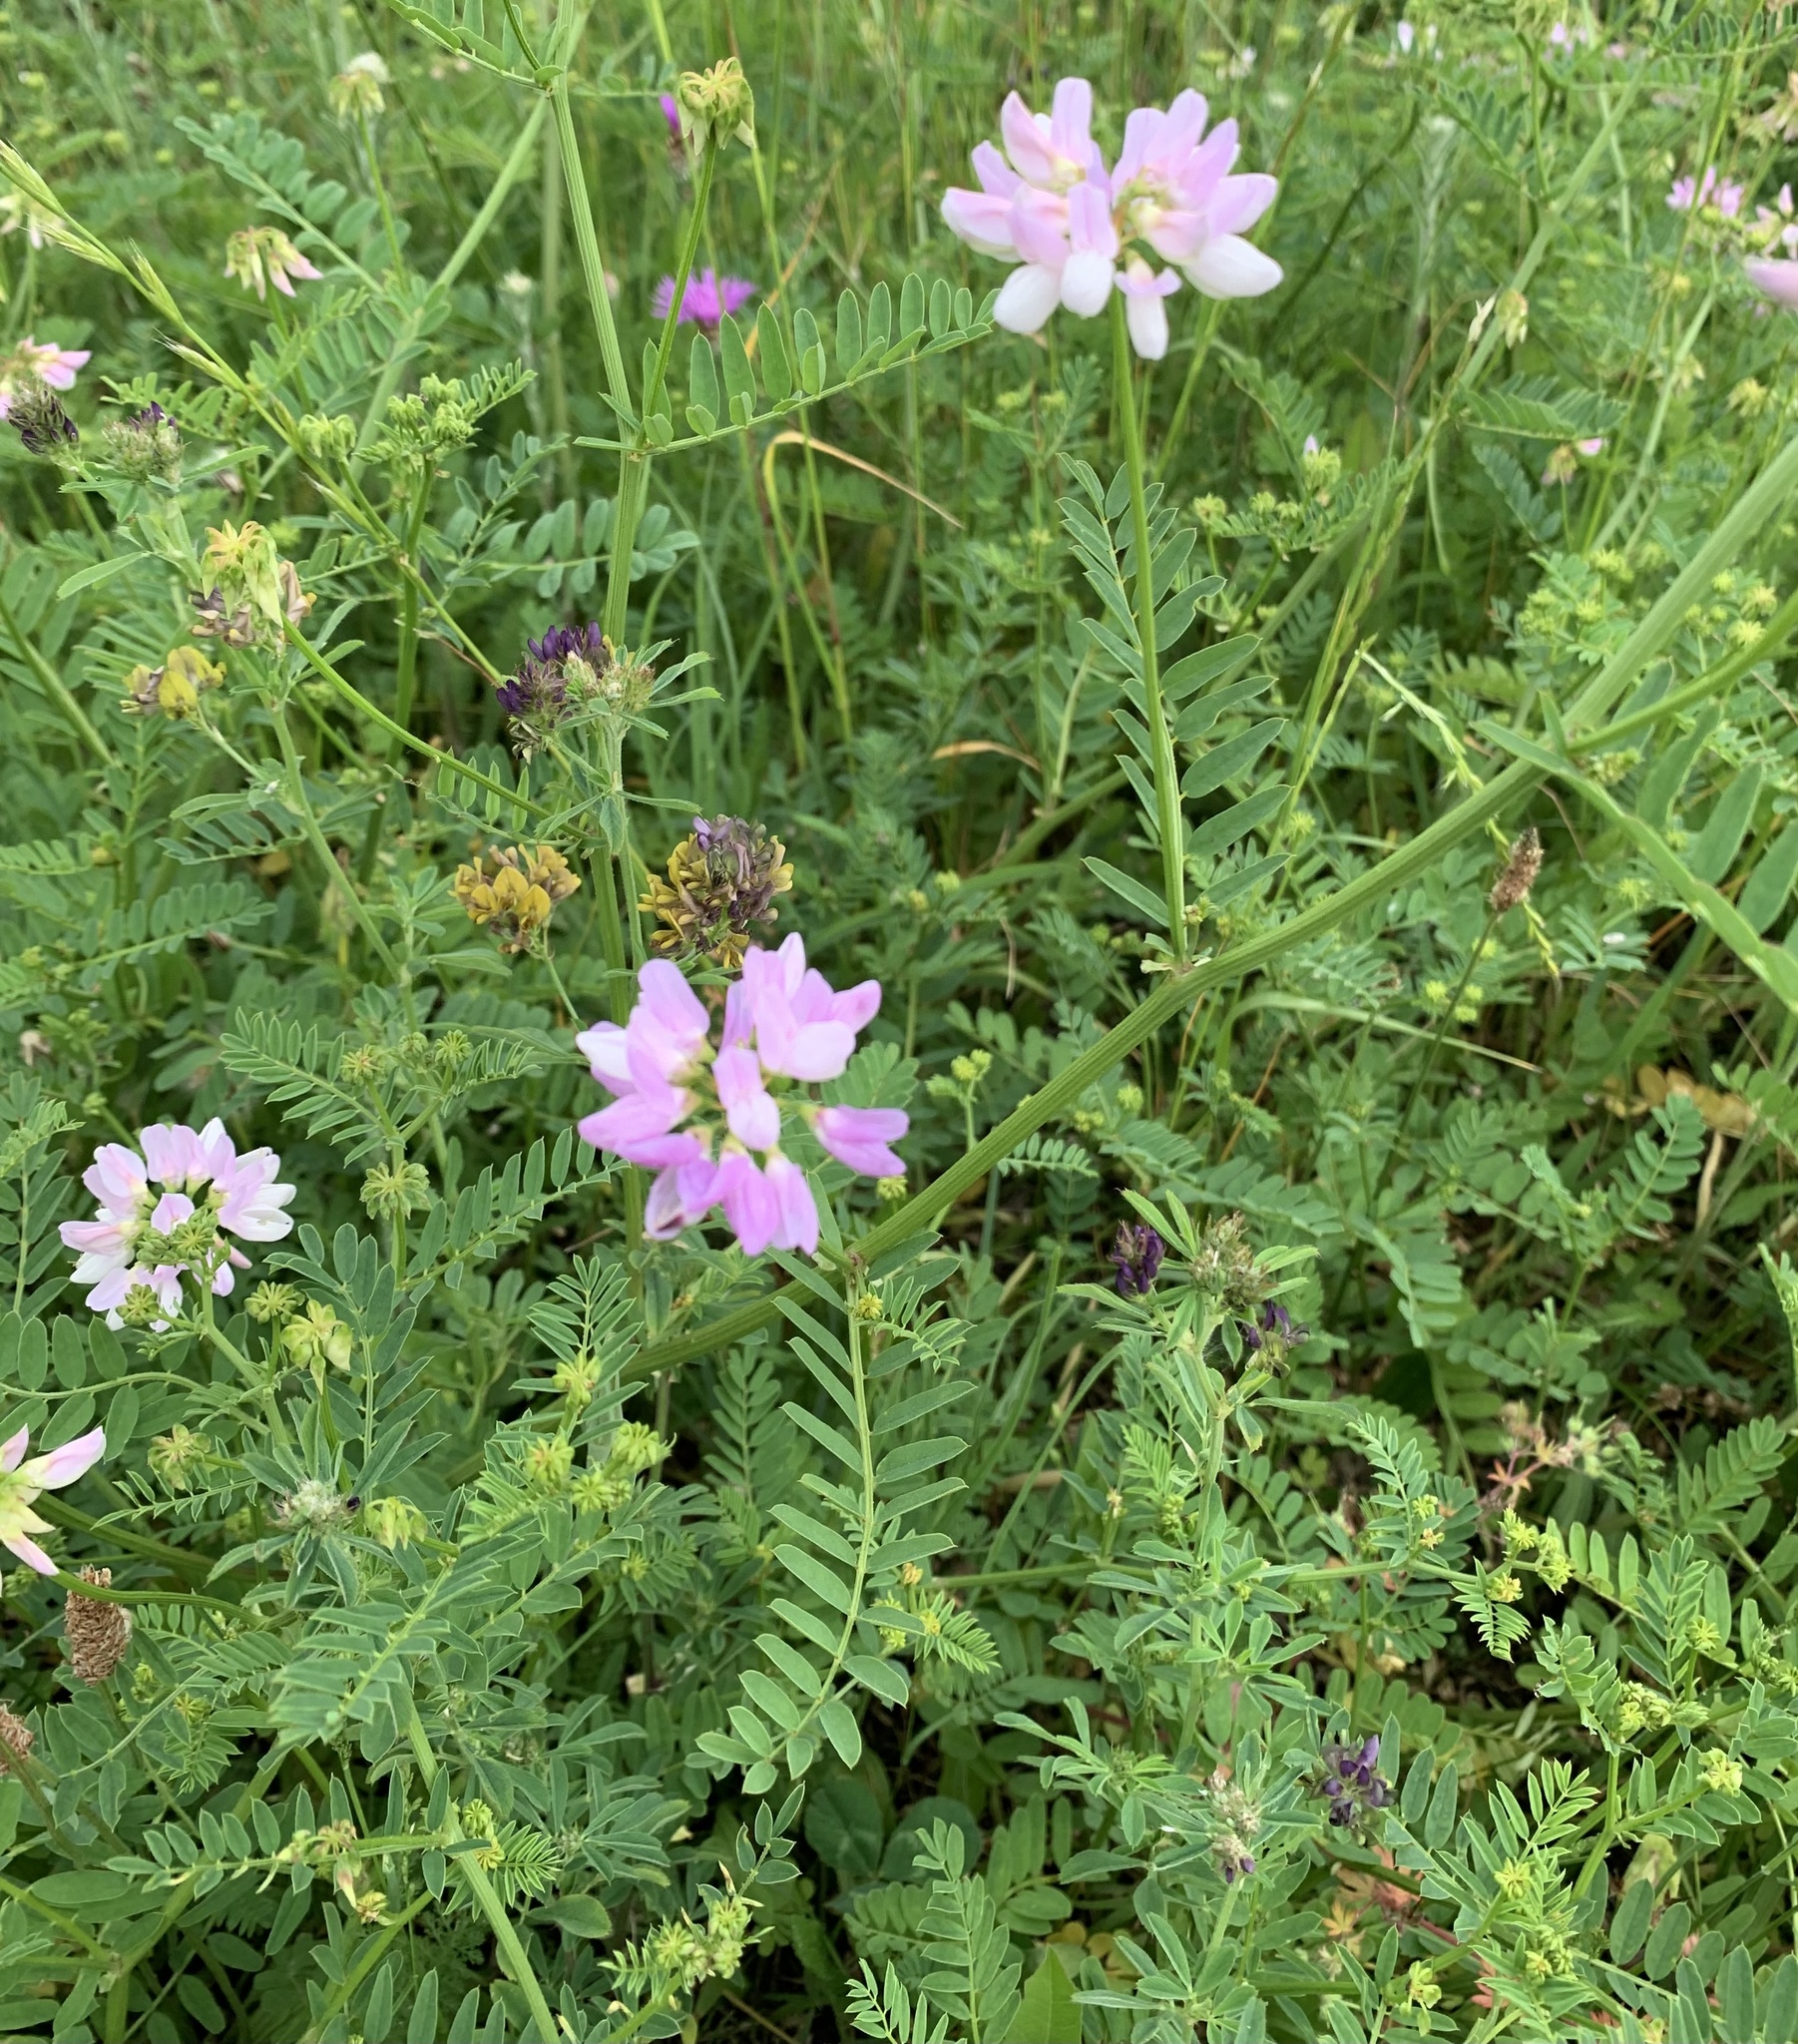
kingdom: Plantae
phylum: Tracheophyta
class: Magnoliopsida
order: Fabales
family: Fabaceae
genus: Coronilla
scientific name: Coronilla varia
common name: Crownvetch
